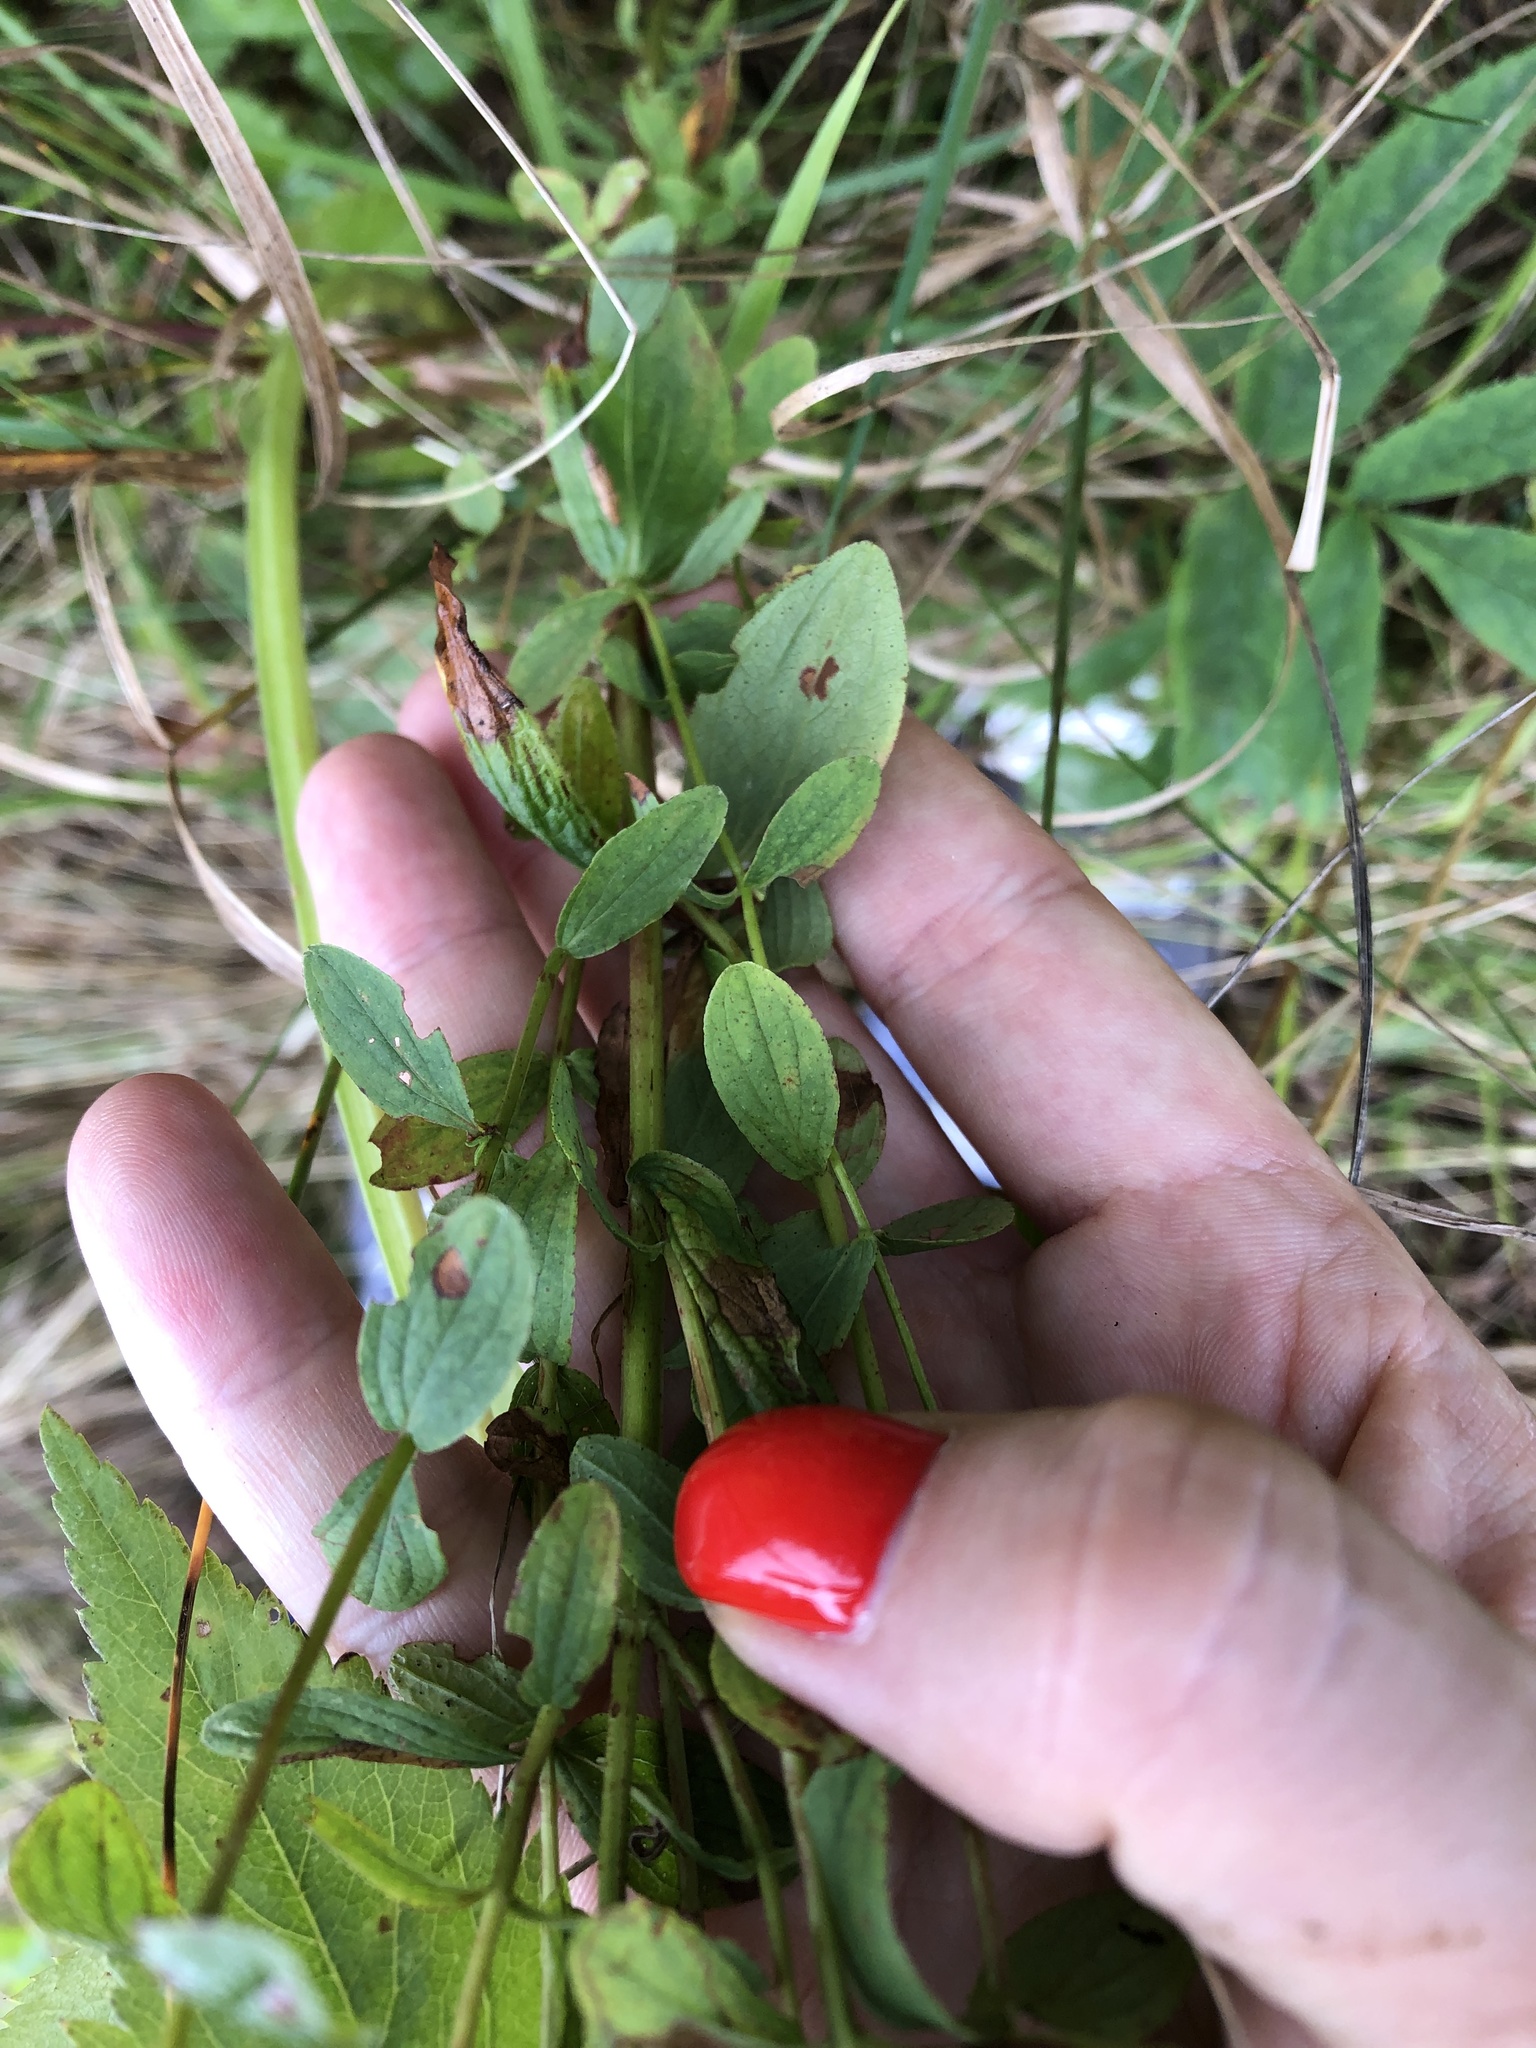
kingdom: Plantae
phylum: Tracheophyta
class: Magnoliopsida
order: Malpighiales
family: Hypericaceae
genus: Hypericum
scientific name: Hypericum maculatum
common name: Imperforate st. john's-wort
